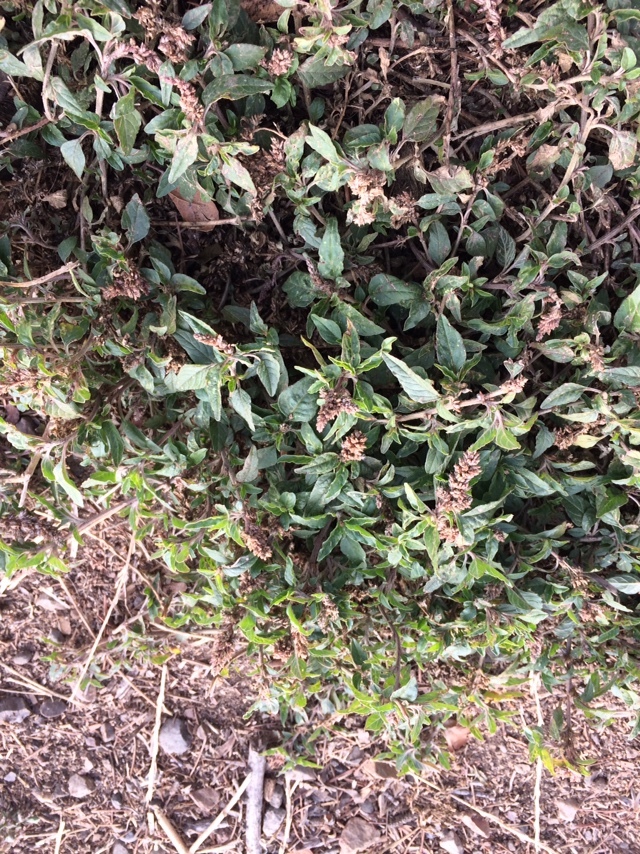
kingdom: Plantae
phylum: Tracheophyta
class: Magnoliopsida
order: Caryophyllales
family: Amaranthaceae
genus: Amaranthus
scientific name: Amaranthus deflexus
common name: Perennial pigweed
